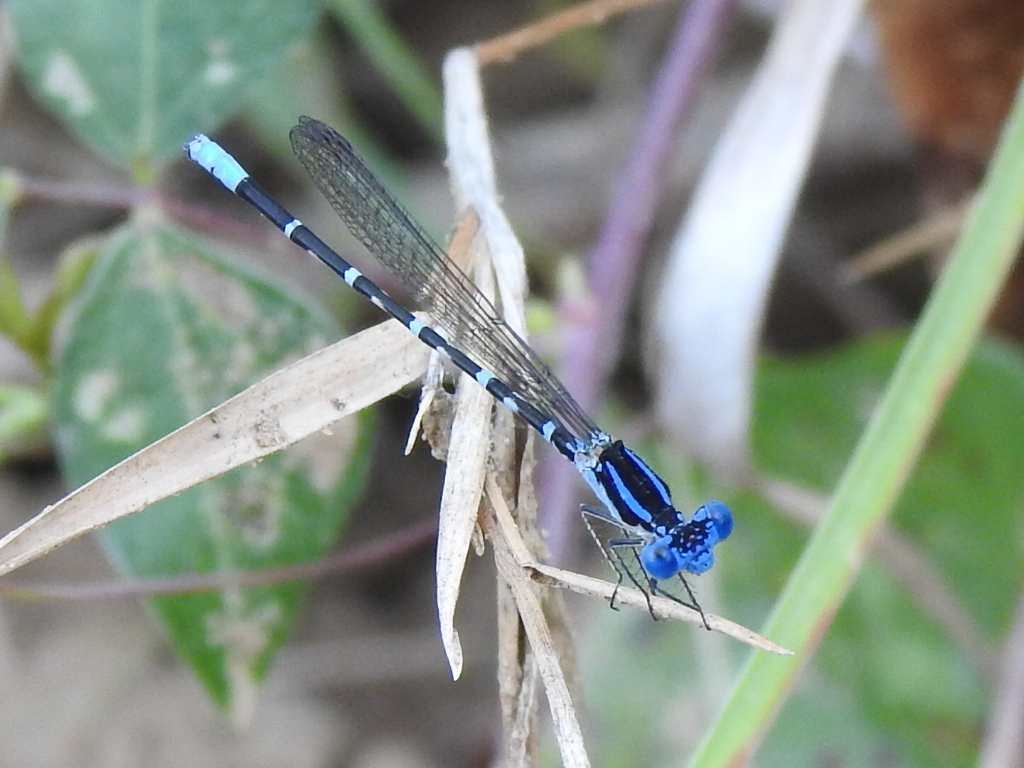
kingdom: Animalia
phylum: Arthropoda
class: Insecta
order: Odonata
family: Coenagrionidae
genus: Argia
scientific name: Argia sedula
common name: Blue-ringed dancer
